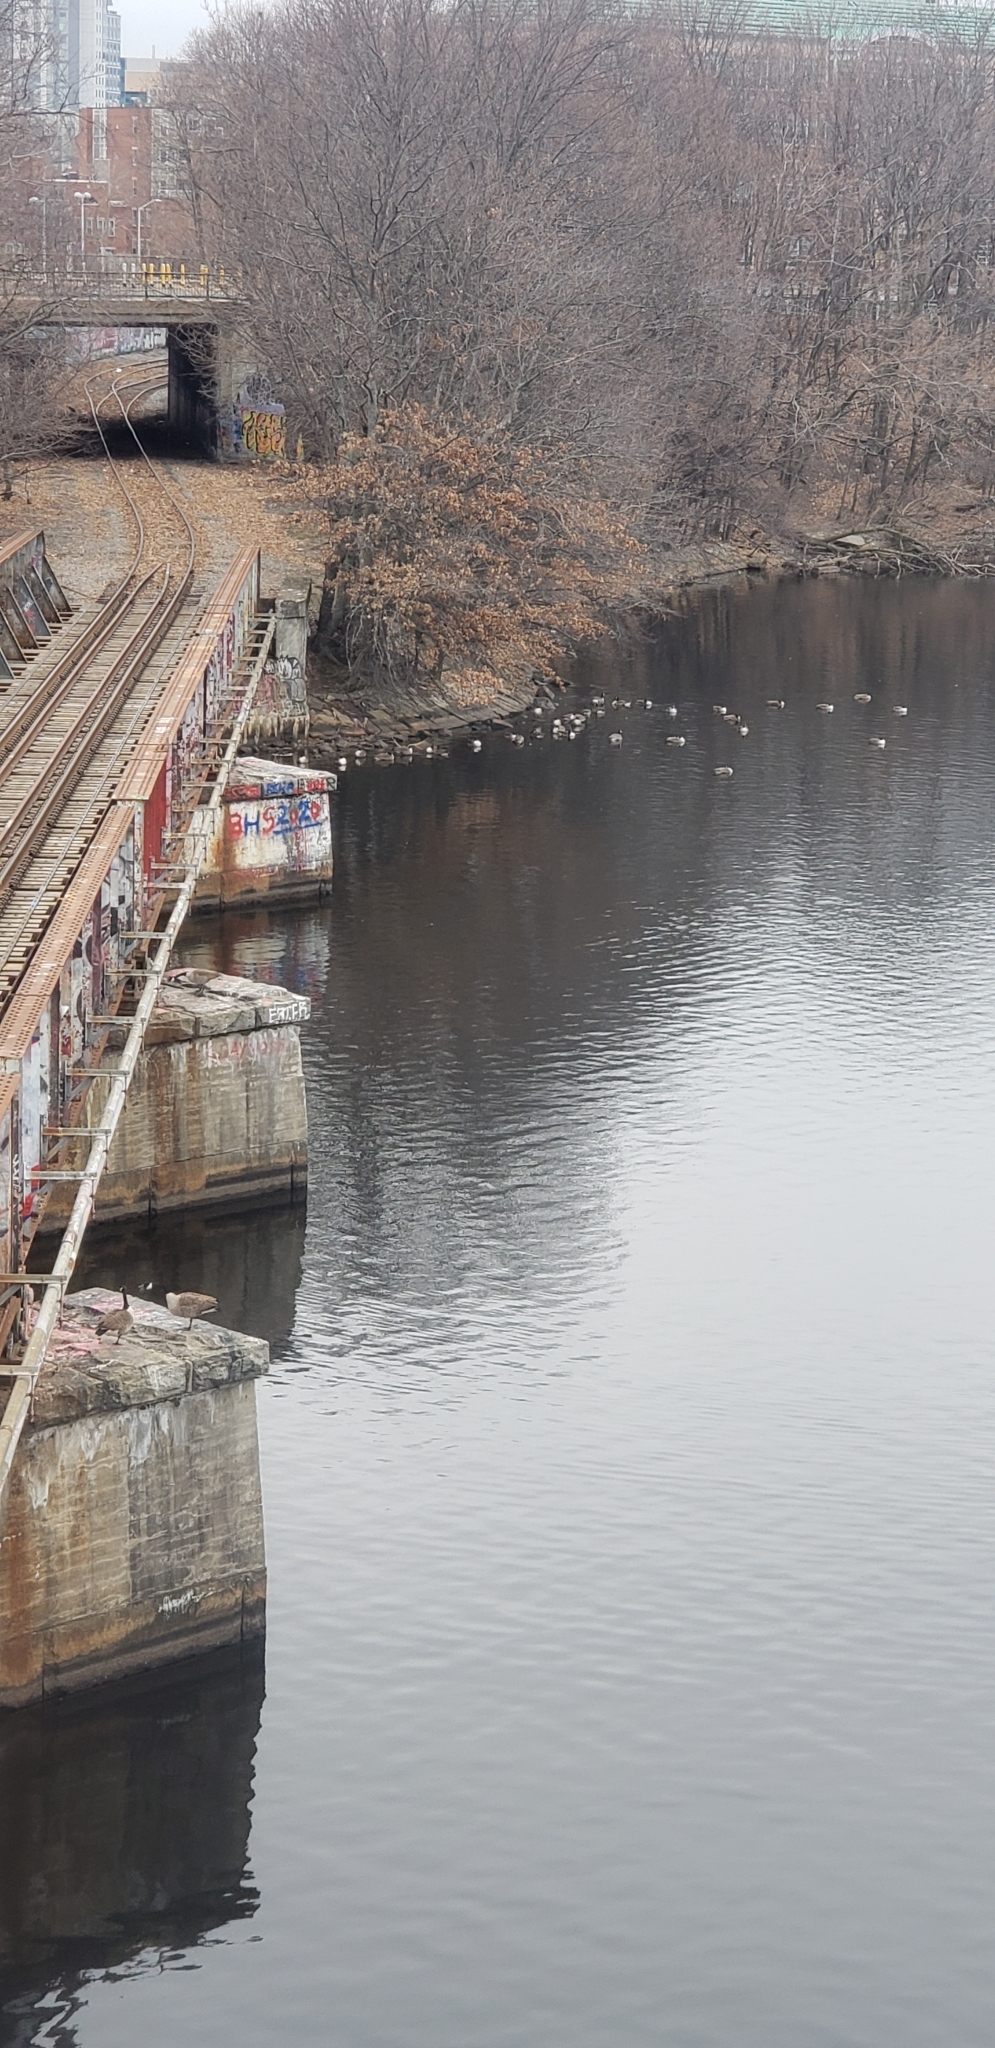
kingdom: Animalia
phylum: Chordata
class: Aves
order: Anseriformes
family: Anatidae
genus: Branta
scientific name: Branta canadensis
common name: Canada goose
